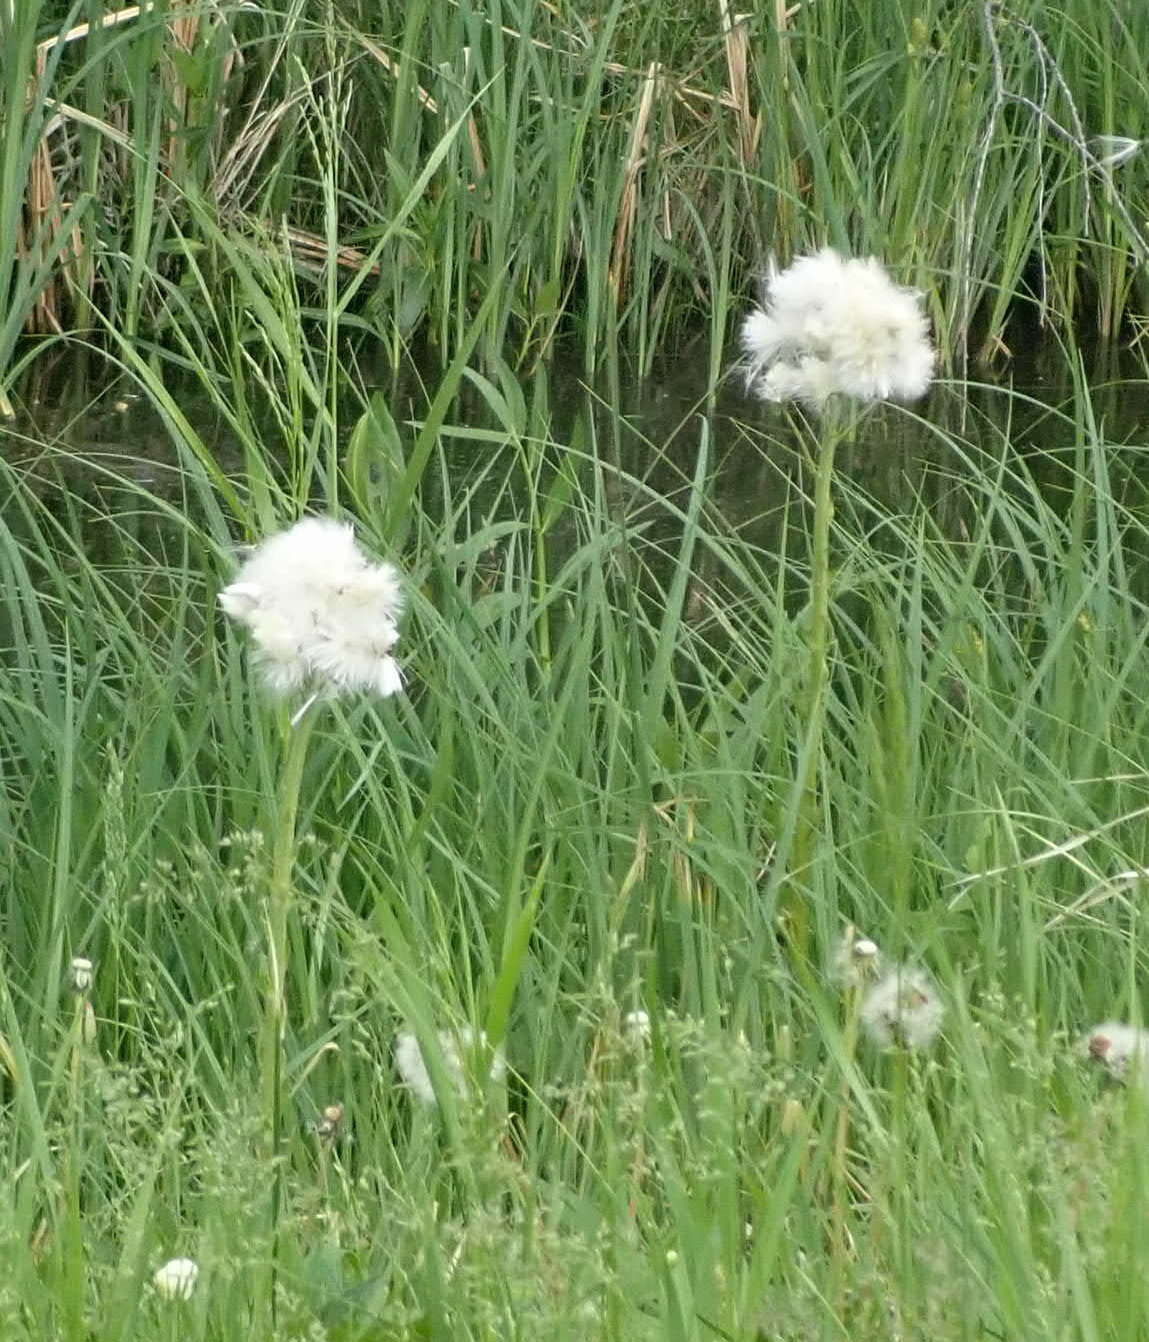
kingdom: Plantae
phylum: Tracheophyta
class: Magnoliopsida
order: Asterales
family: Asteraceae
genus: Petasites
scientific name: Petasites frigidus
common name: Arctic butterbur
